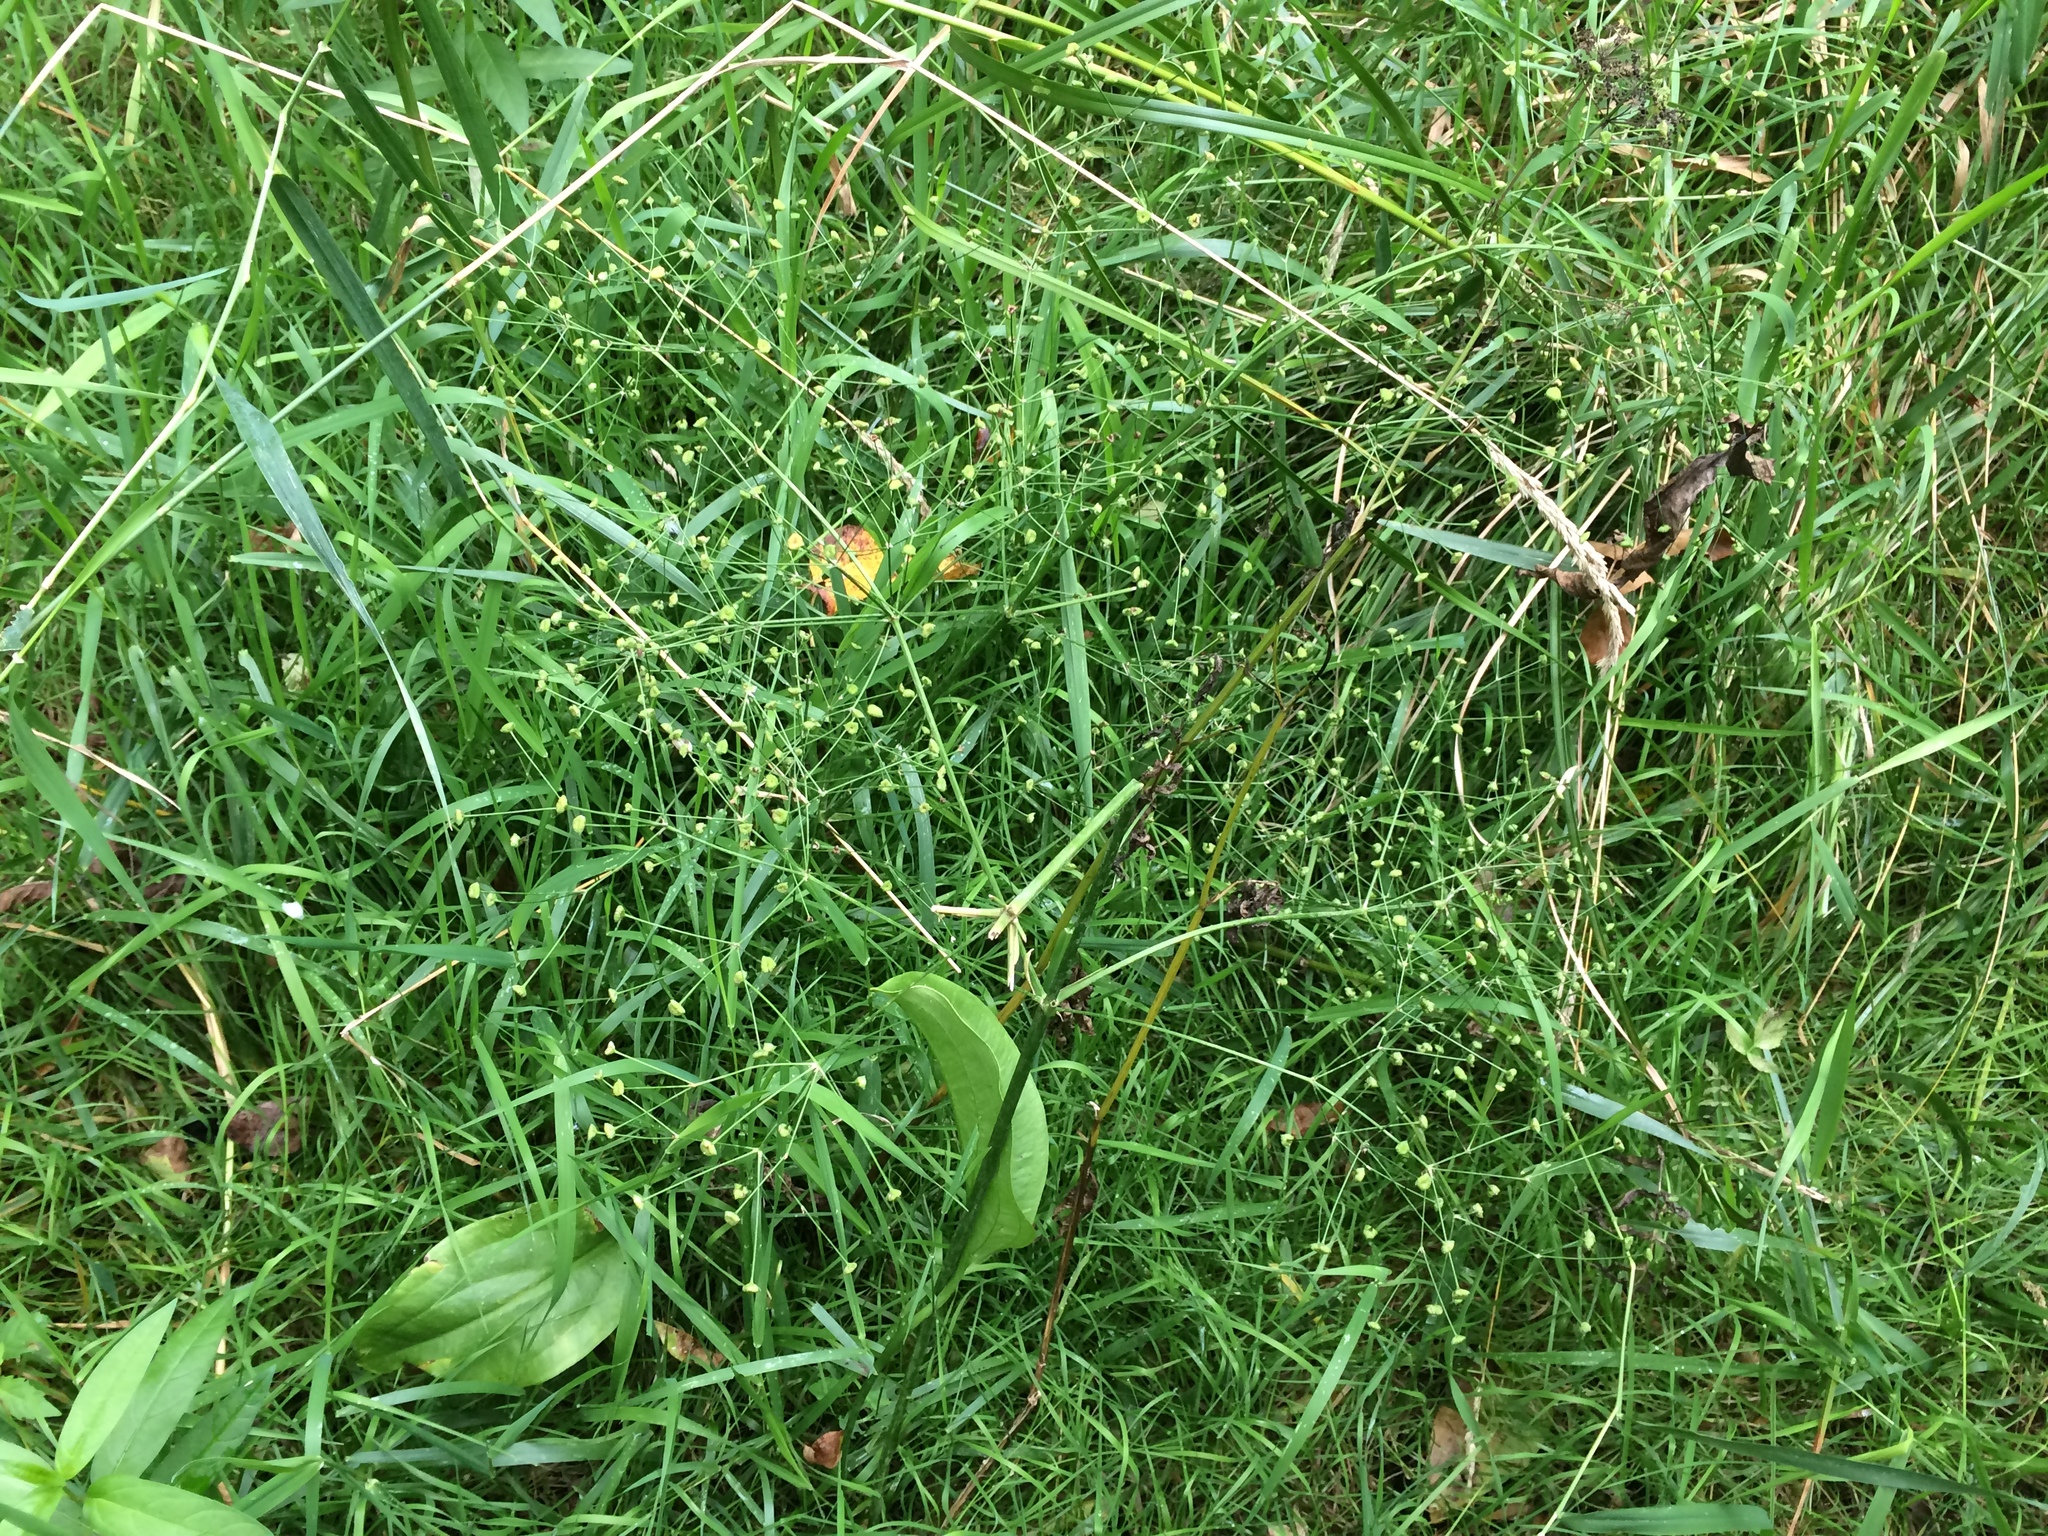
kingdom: Plantae
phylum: Tracheophyta
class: Liliopsida
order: Alismatales
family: Alismataceae
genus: Alisma
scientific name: Alisma triviale
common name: Northern water-plantain
